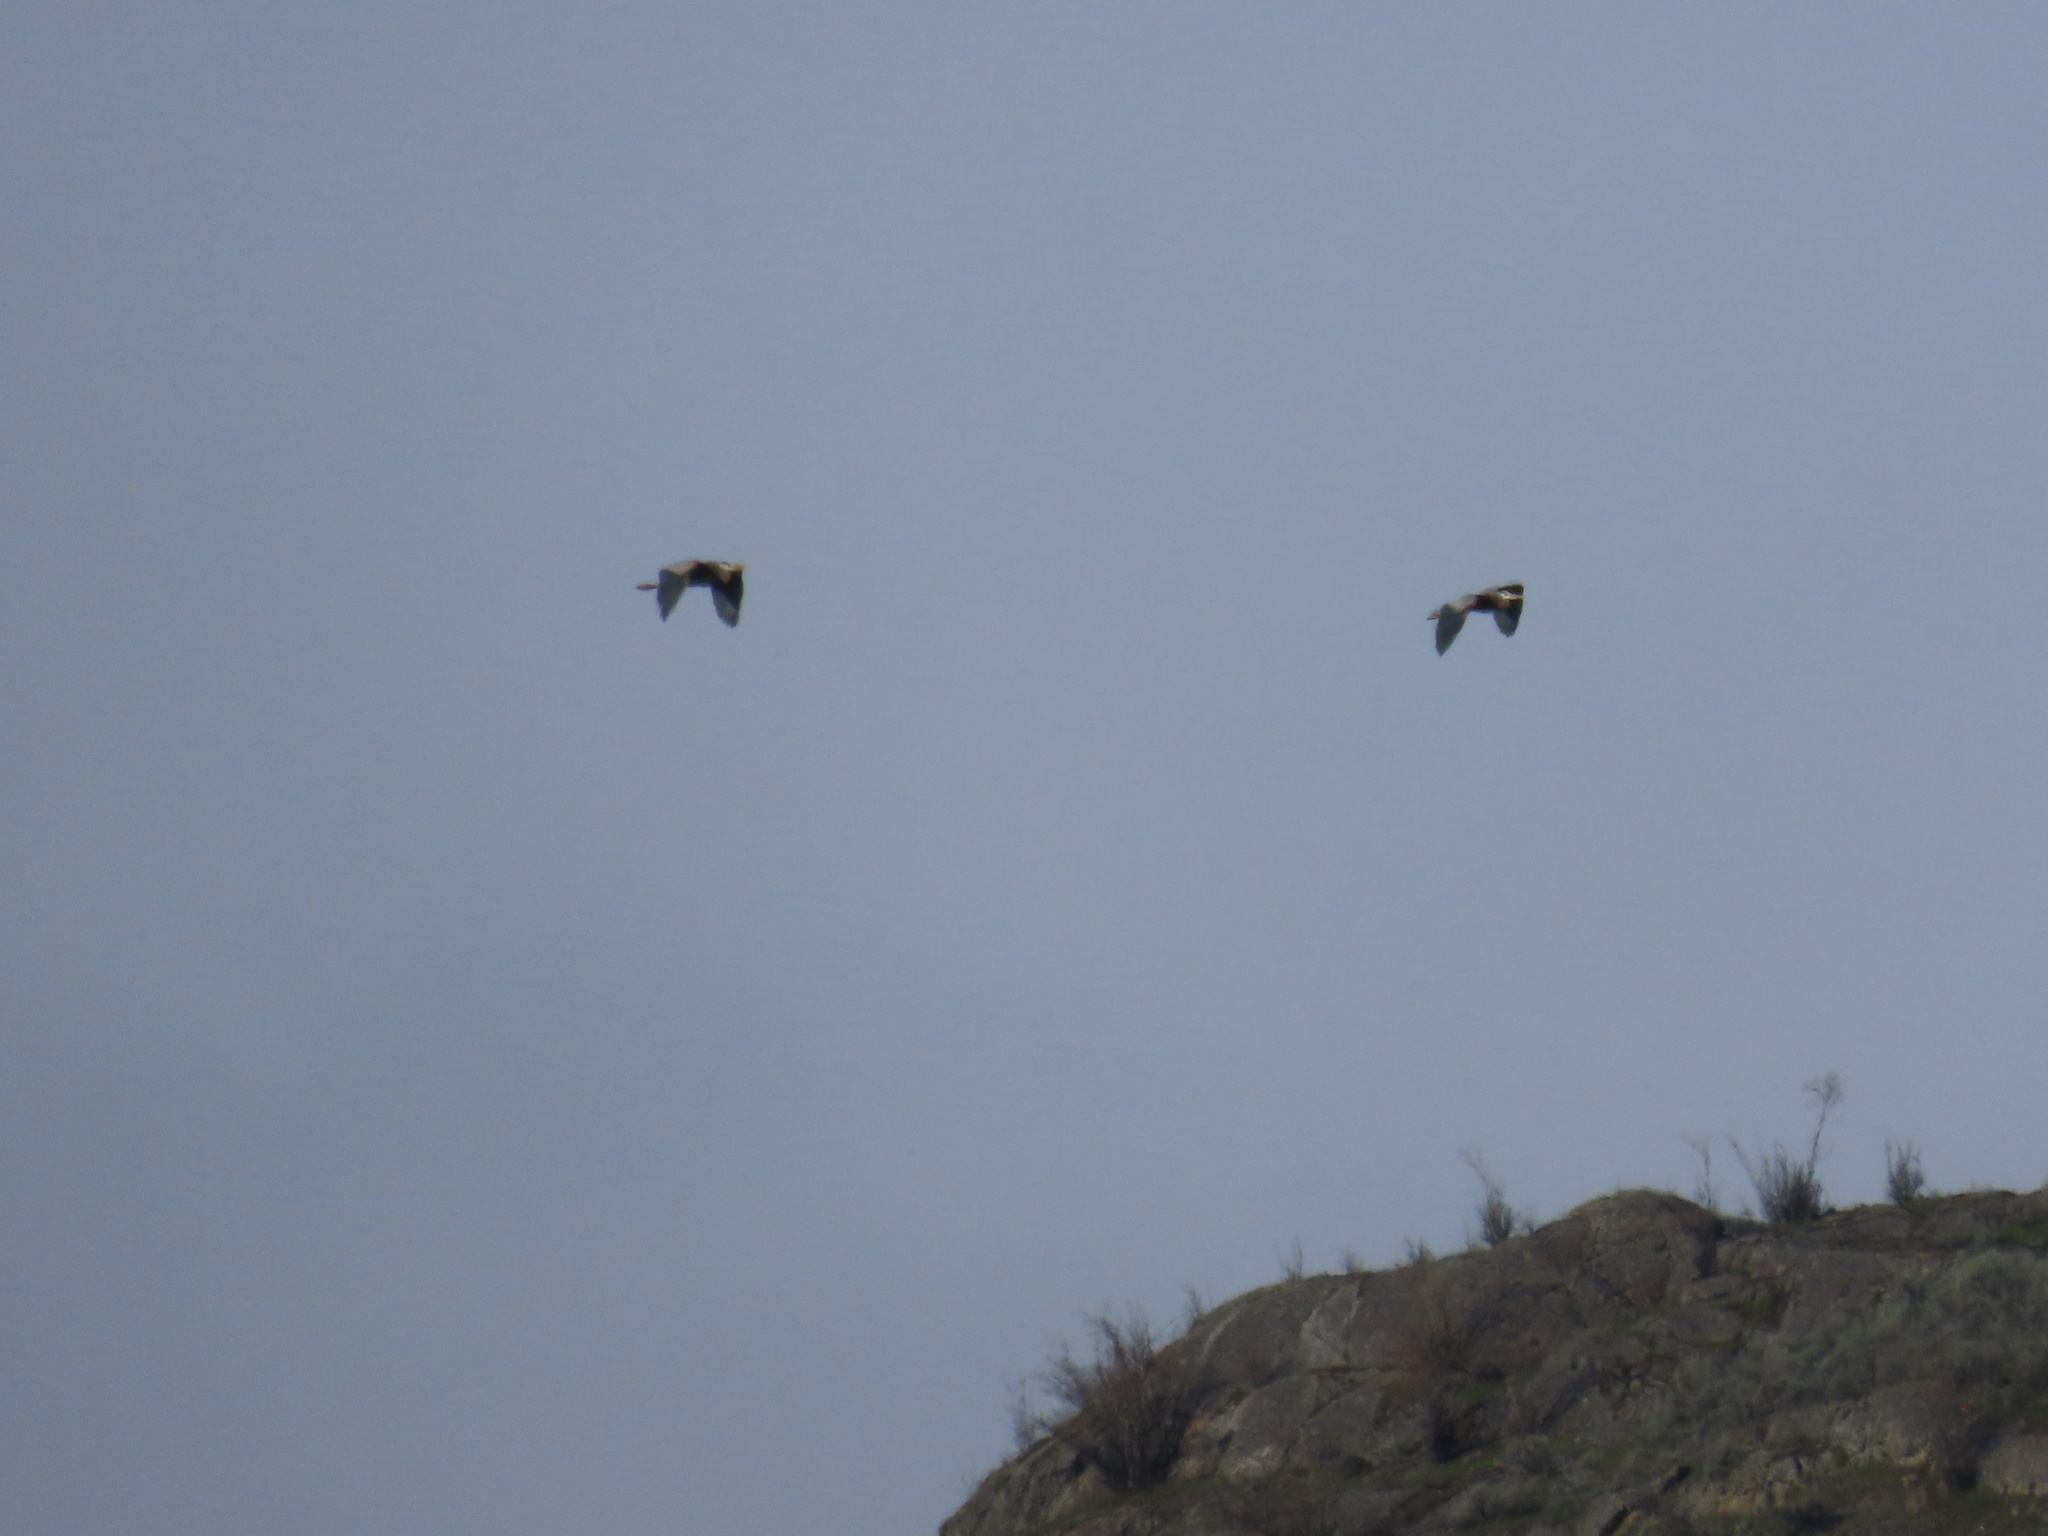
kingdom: Animalia
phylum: Chordata
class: Aves
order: Pelecaniformes
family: Ardeidae
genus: Ardea
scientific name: Ardea herodias
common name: Great blue heron
